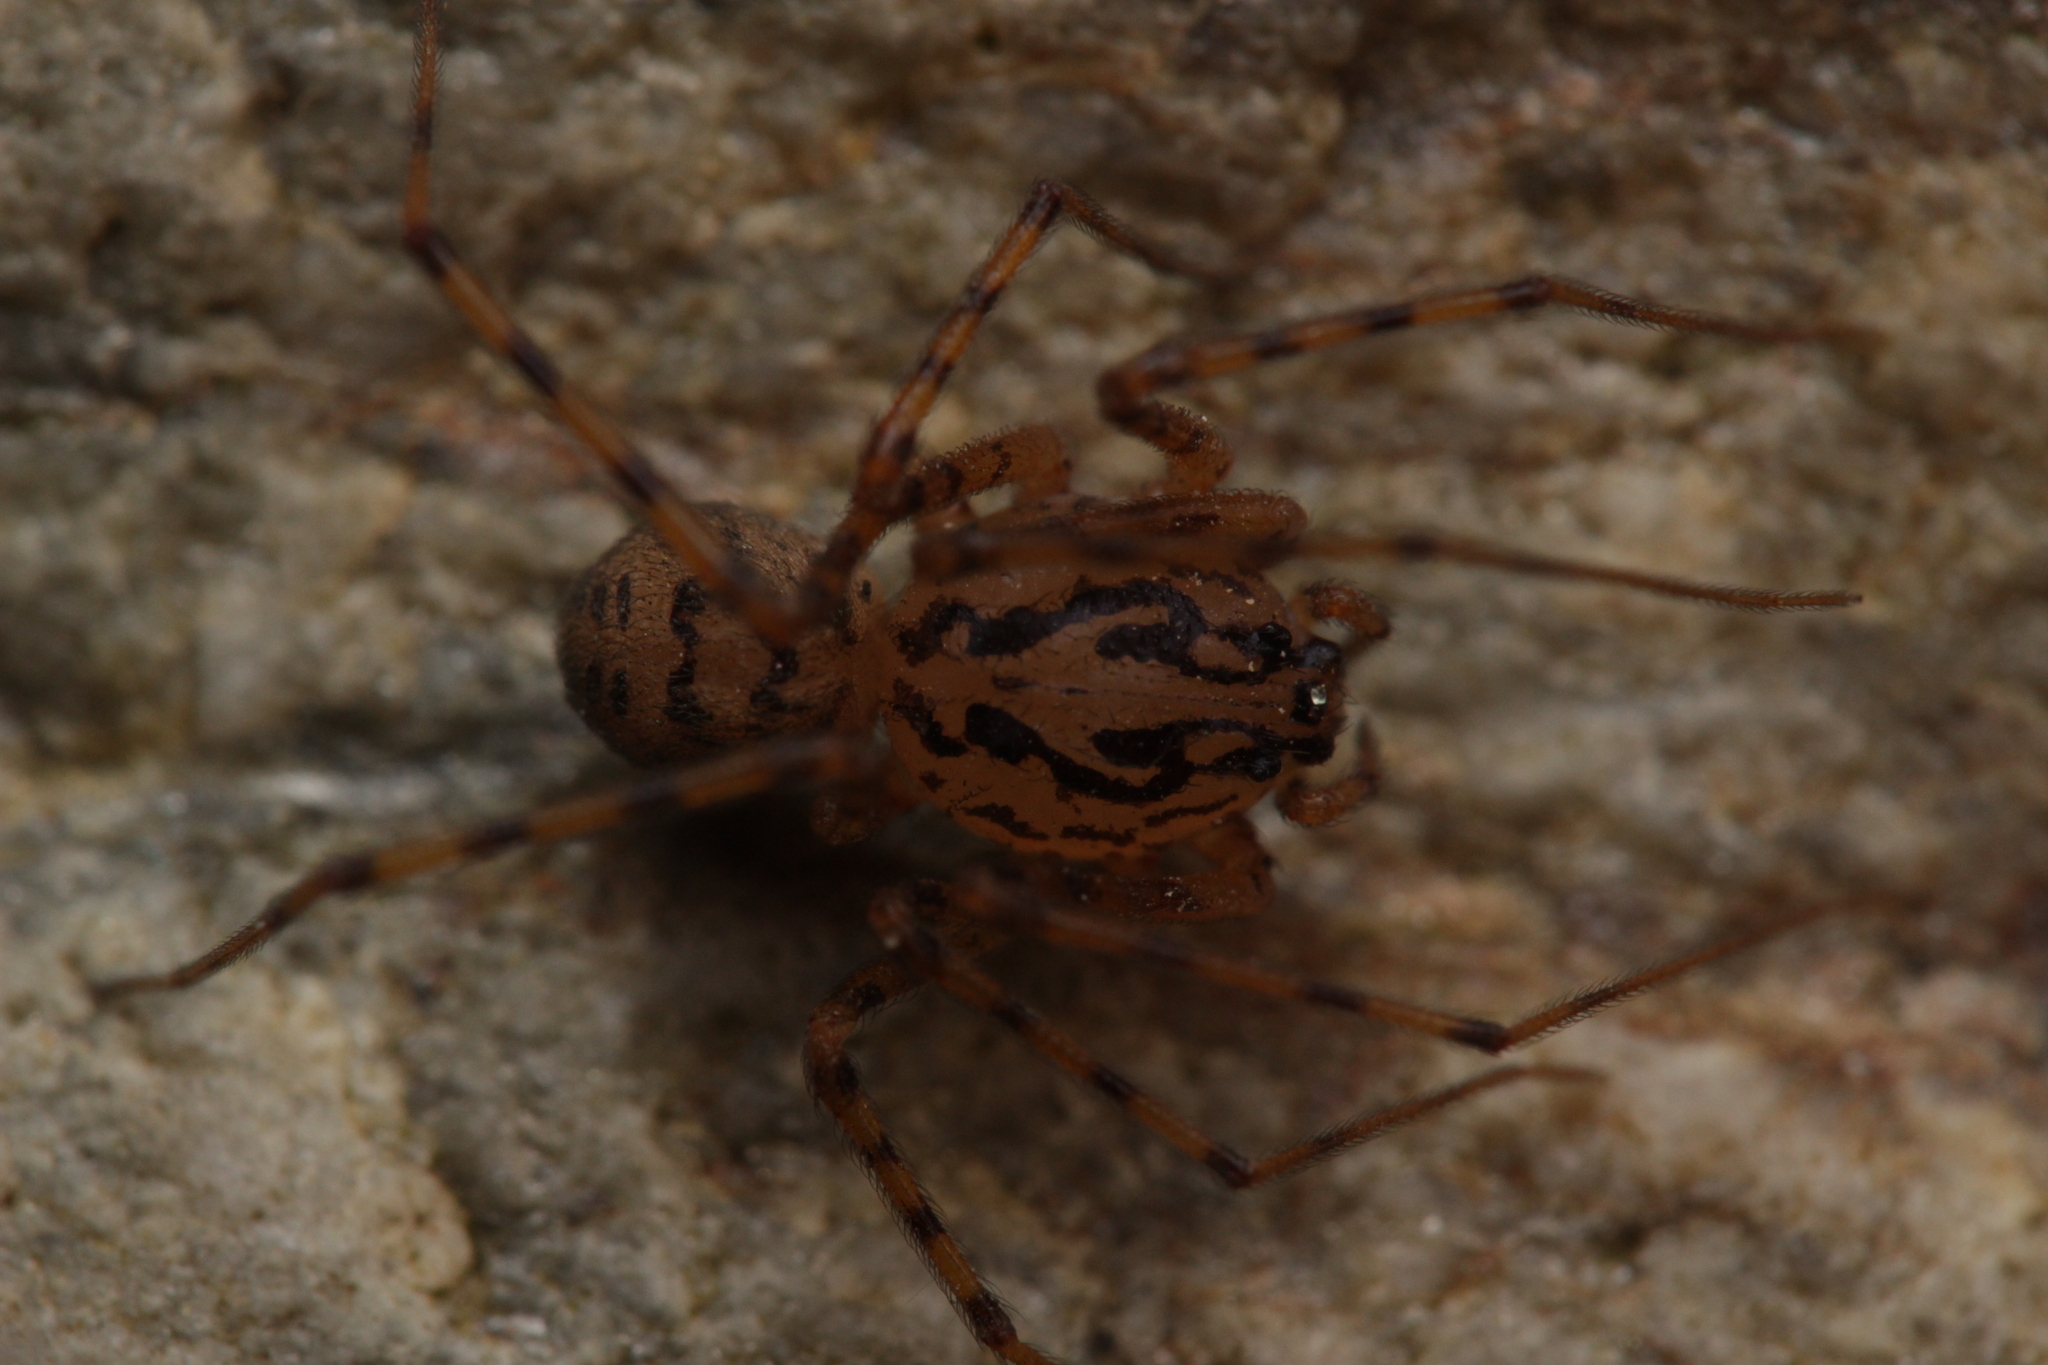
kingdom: Animalia
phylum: Arthropoda
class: Arachnida
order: Araneae
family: Scytodidae
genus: Scytodes
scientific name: Scytodes thoracica
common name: Spitting spider
